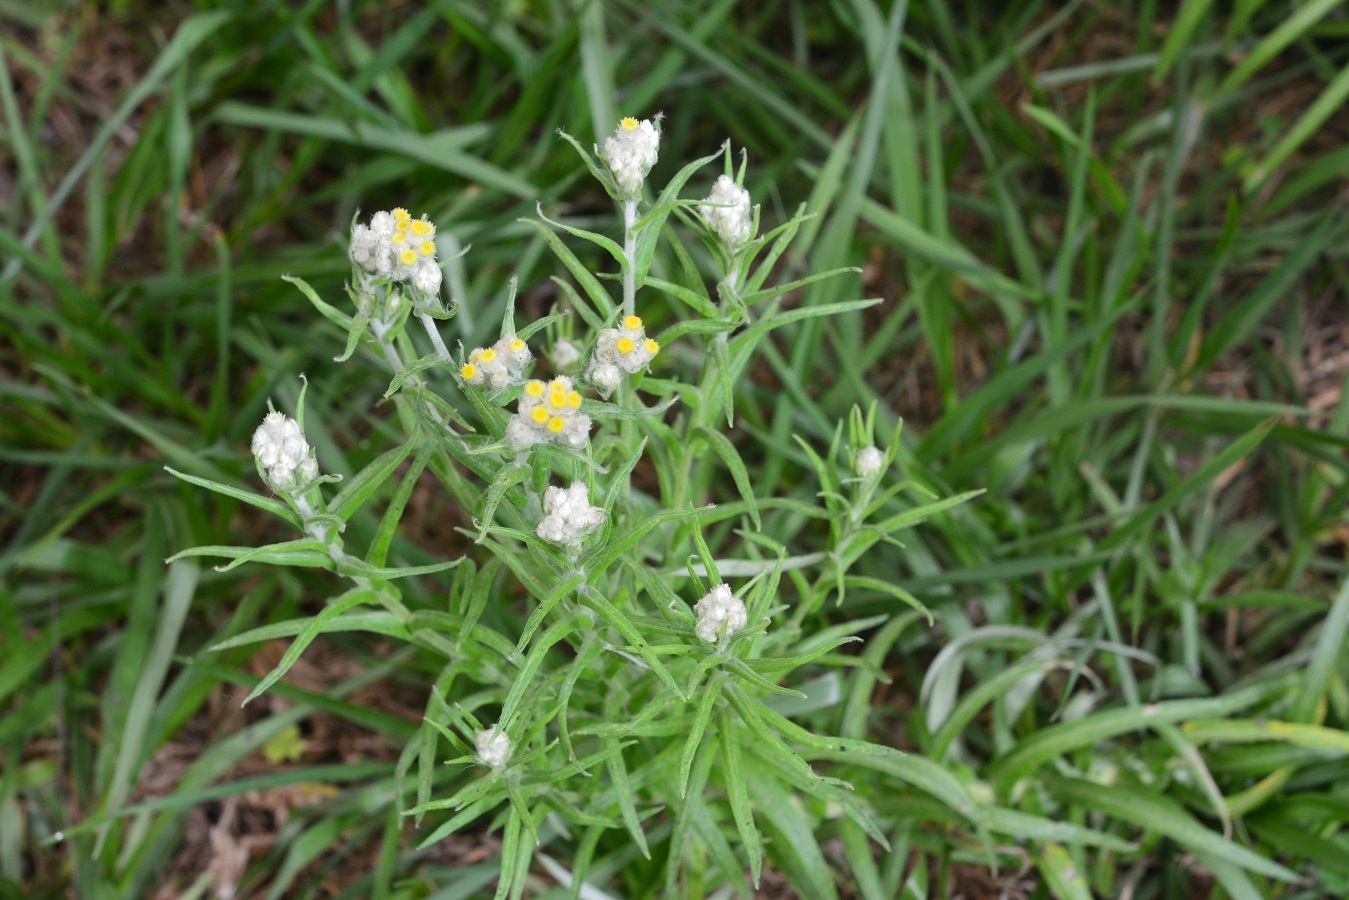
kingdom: Plantae
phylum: Tracheophyta
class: Magnoliopsida
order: Asterales
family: Asteraceae
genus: Pseudognaphalium
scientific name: Pseudognaphalium viscosum
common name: Sticky rabbit-tobacco
